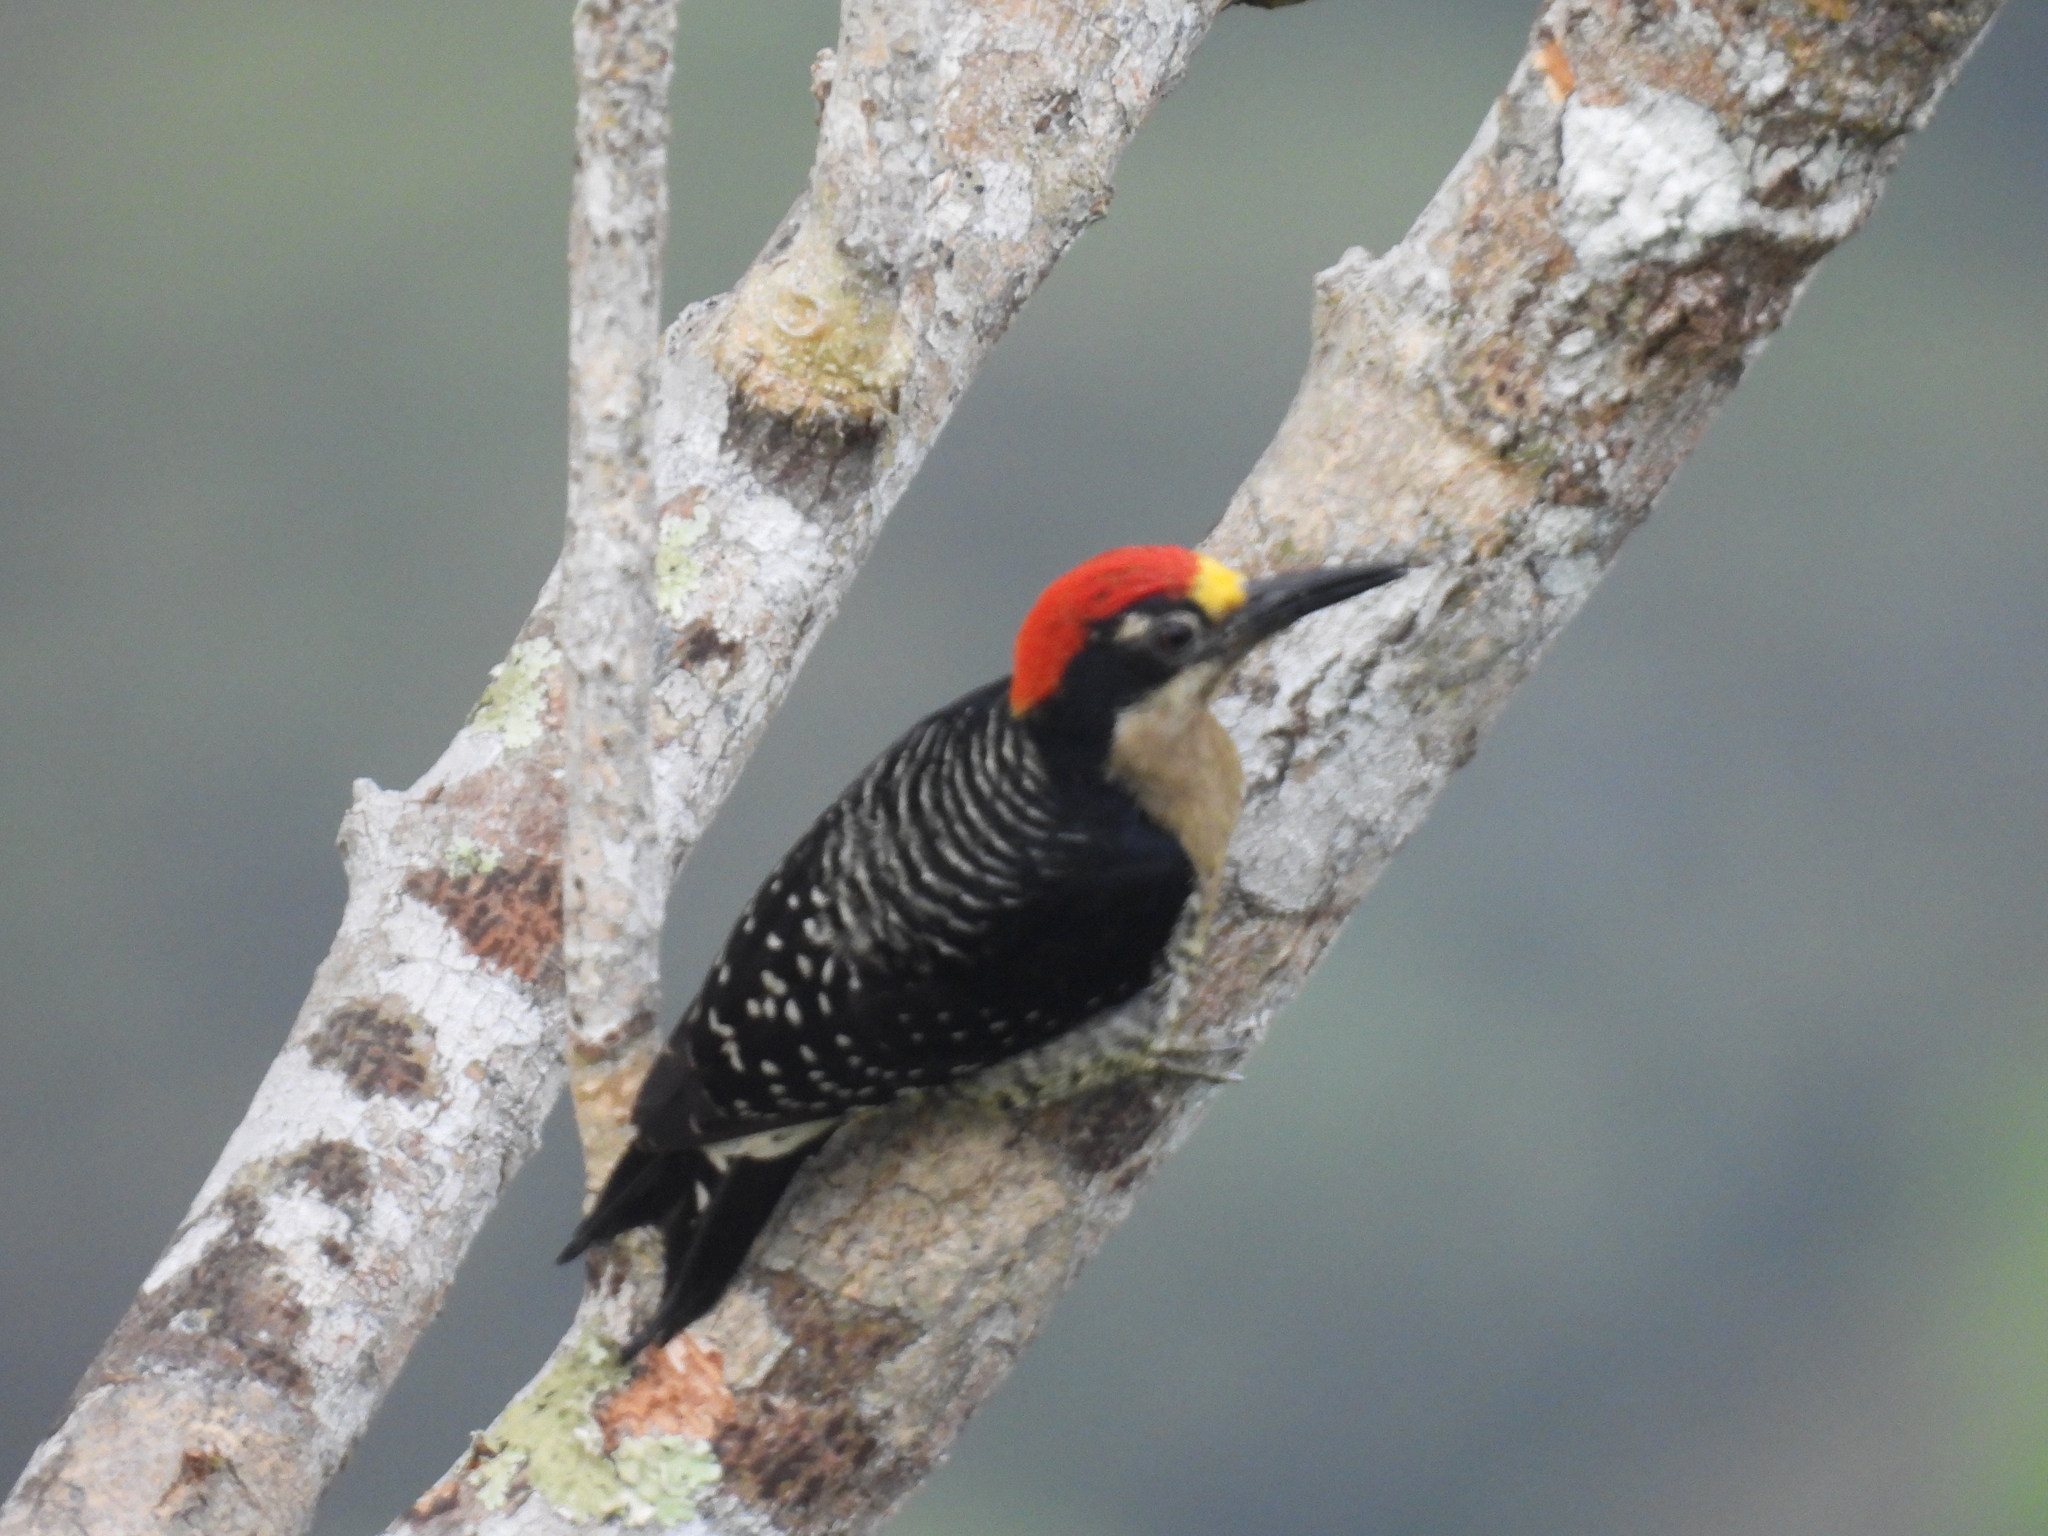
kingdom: Animalia
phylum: Chordata
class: Aves
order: Piciformes
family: Picidae
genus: Melanerpes
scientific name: Melanerpes pucherani
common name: Black-cheeked woodpecker
